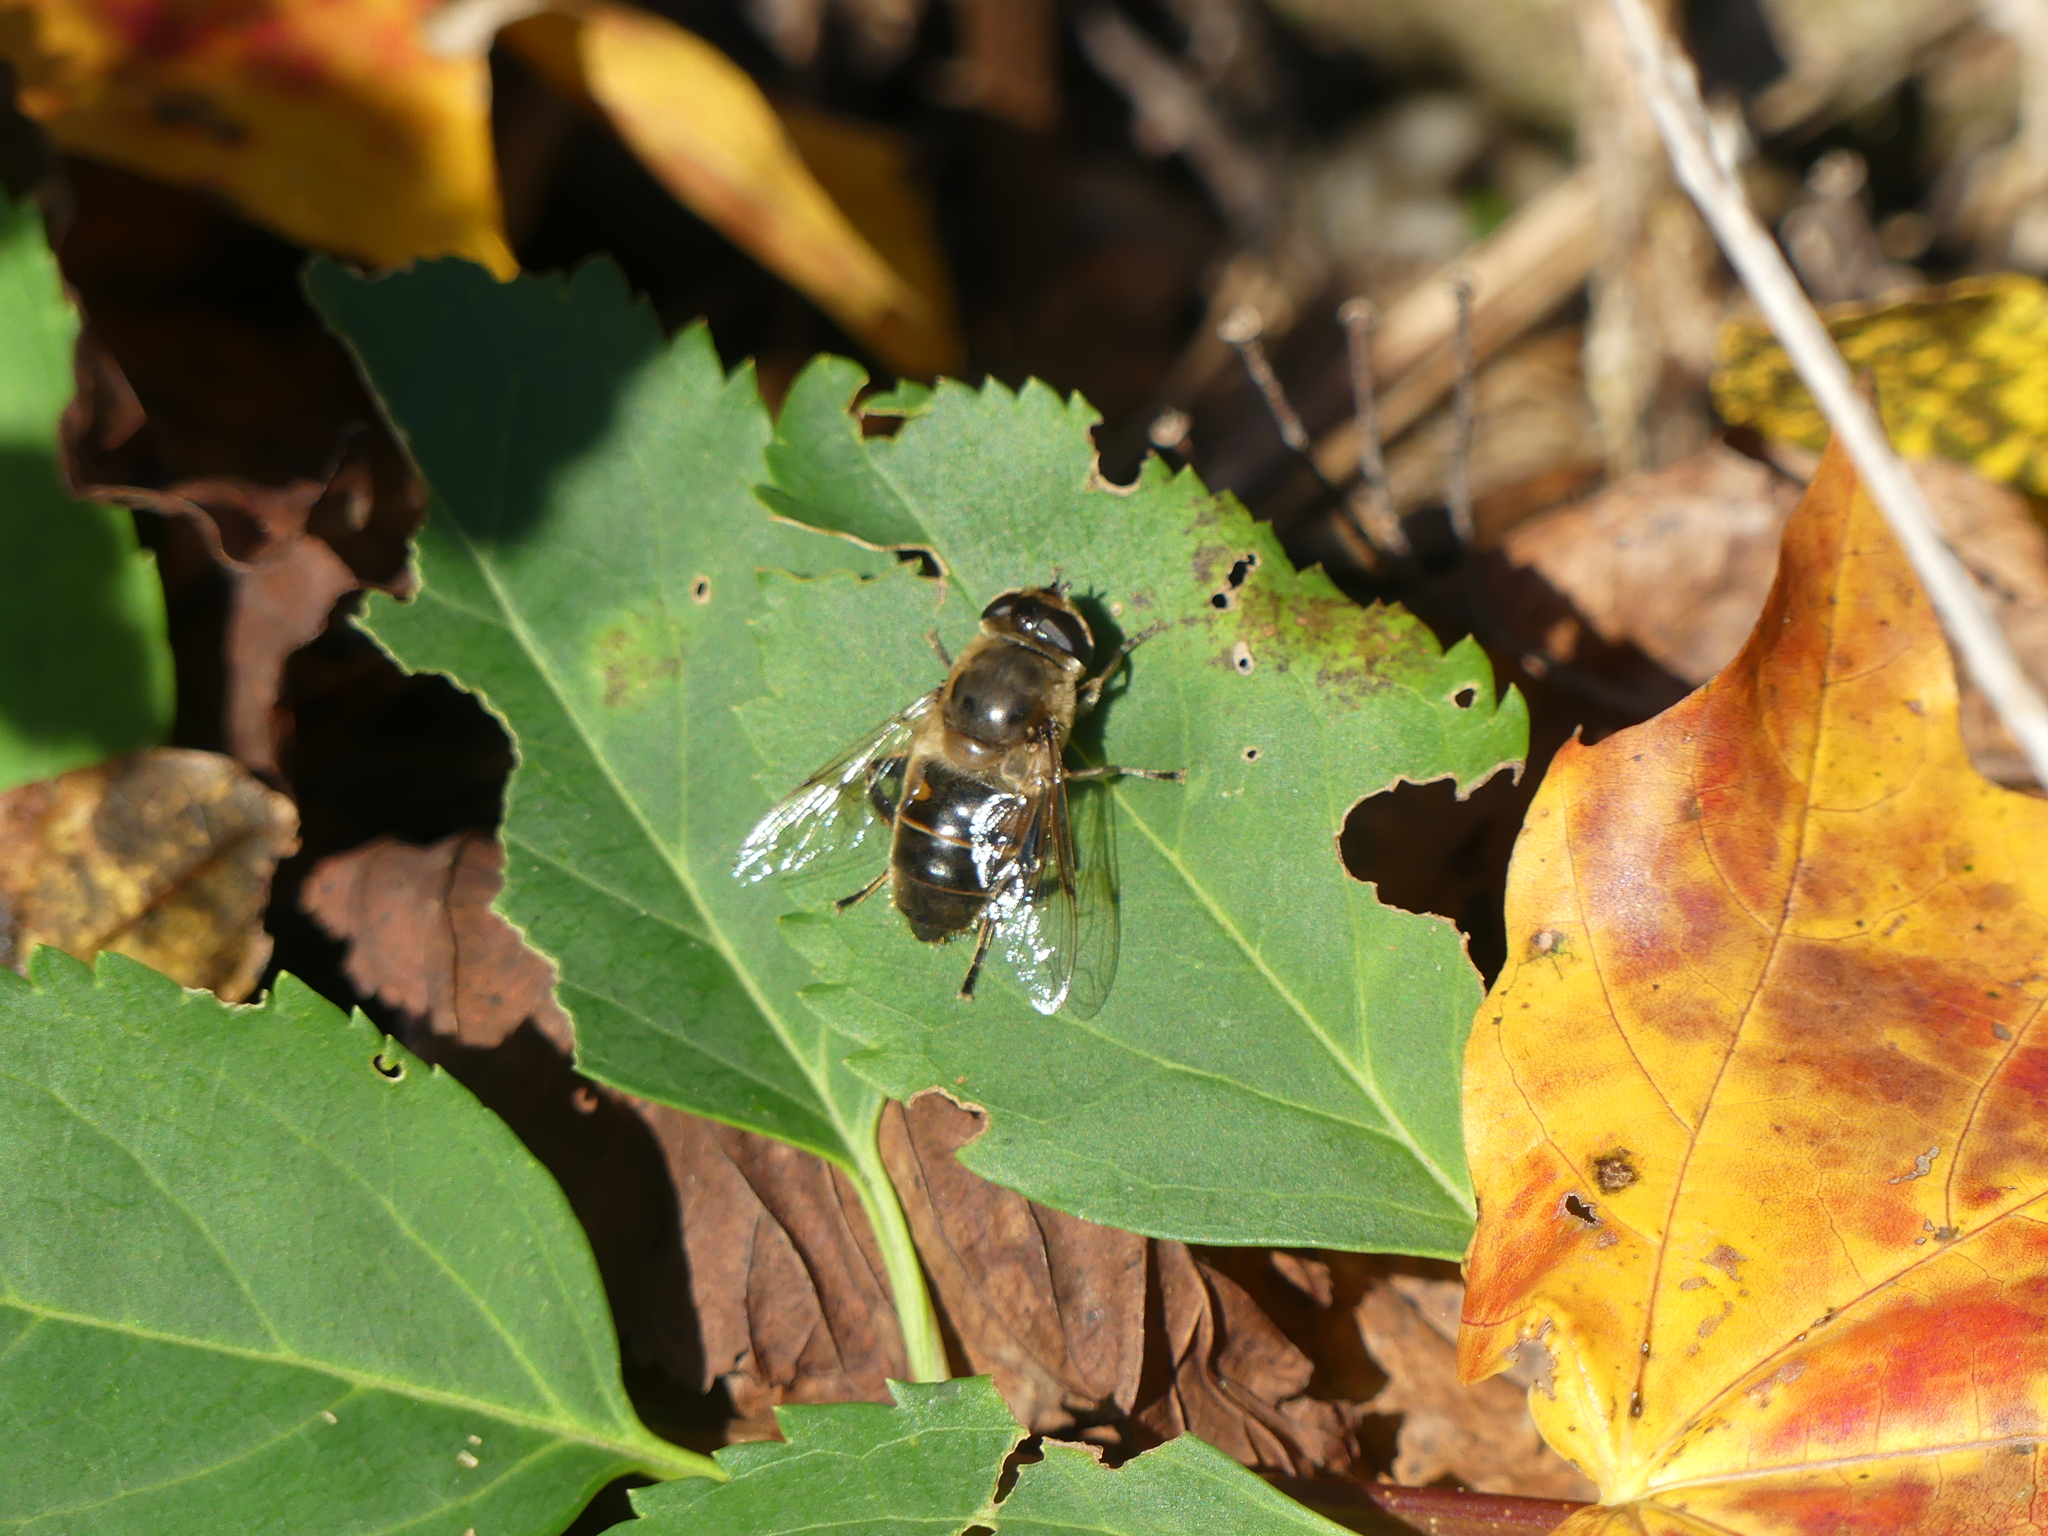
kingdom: Animalia
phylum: Arthropoda
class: Insecta
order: Diptera
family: Syrphidae
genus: Eristalis
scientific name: Eristalis tenax
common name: Drone fly
